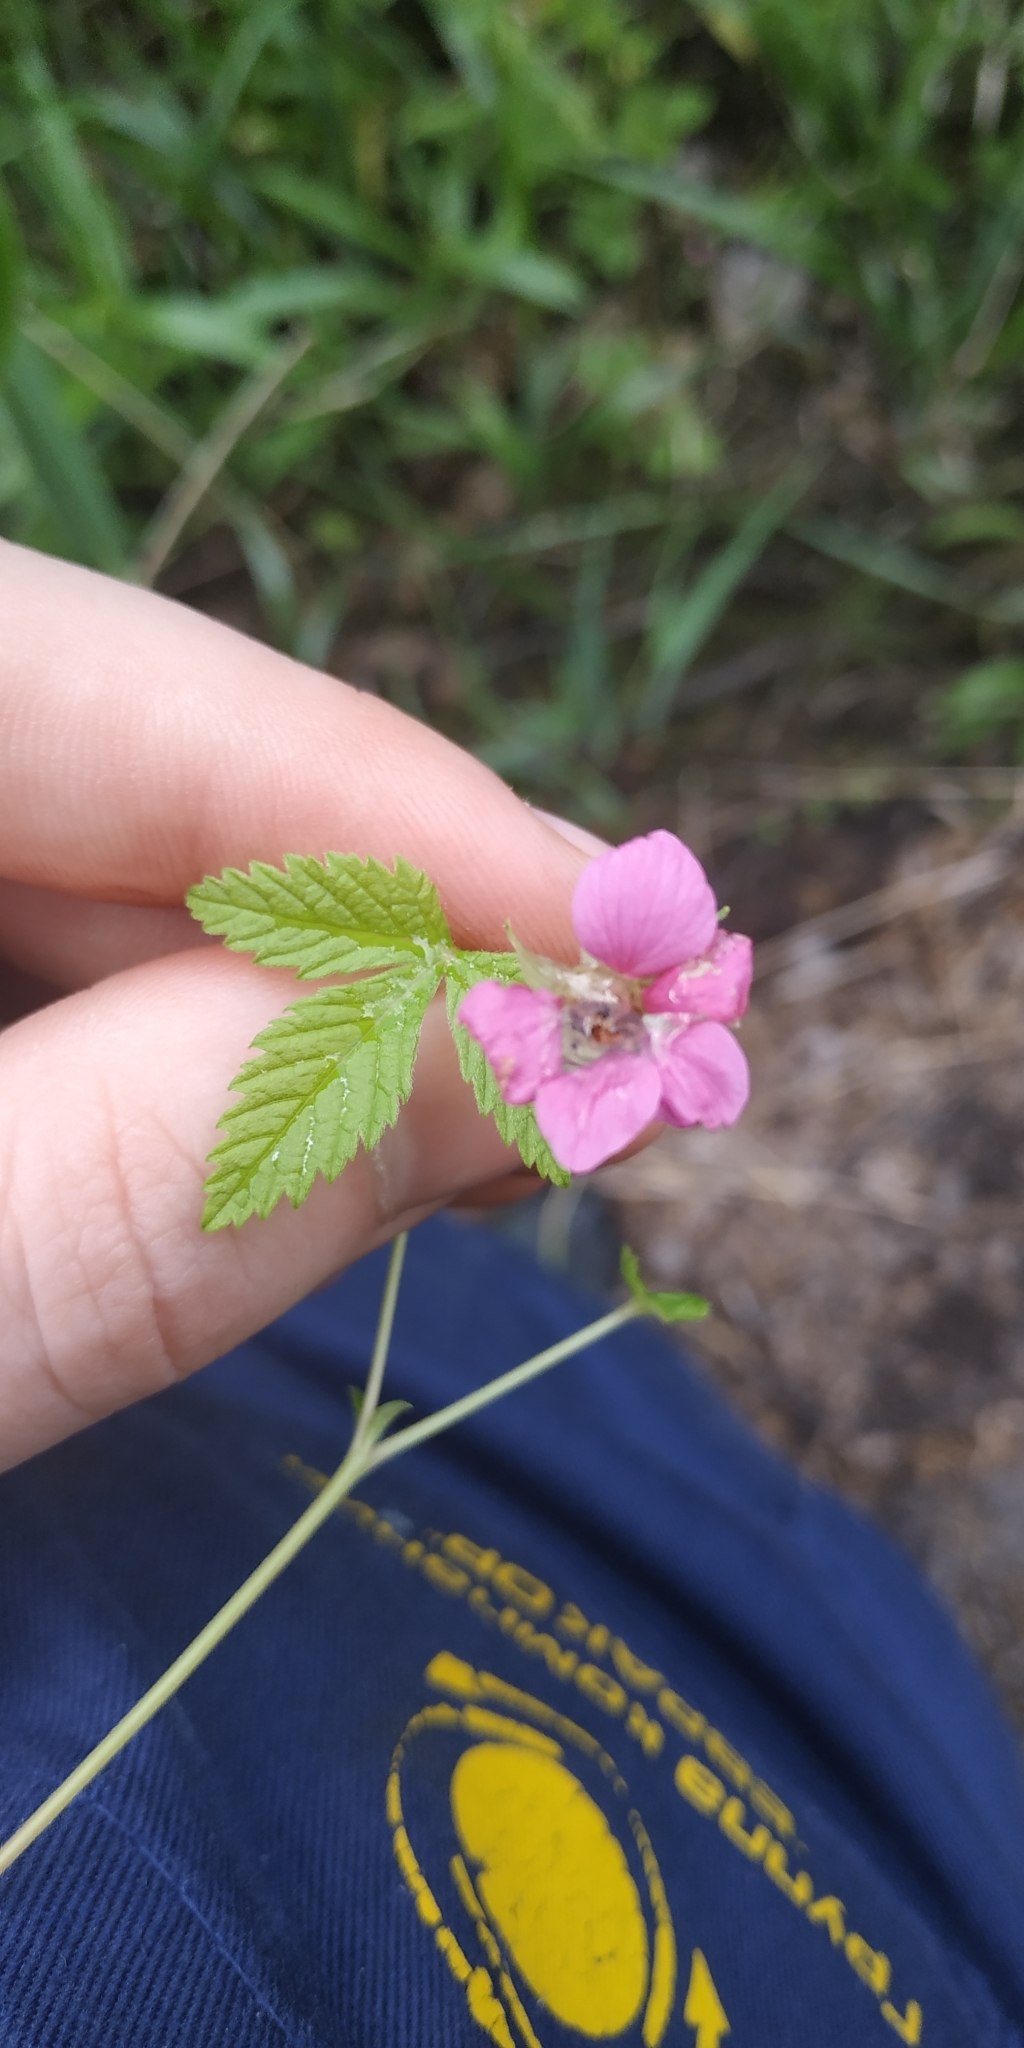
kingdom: Plantae
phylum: Tracheophyta
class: Magnoliopsida
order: Rosales
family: Rosaceae
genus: Rubus
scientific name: Rubus arcticus
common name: Arctic bramble
